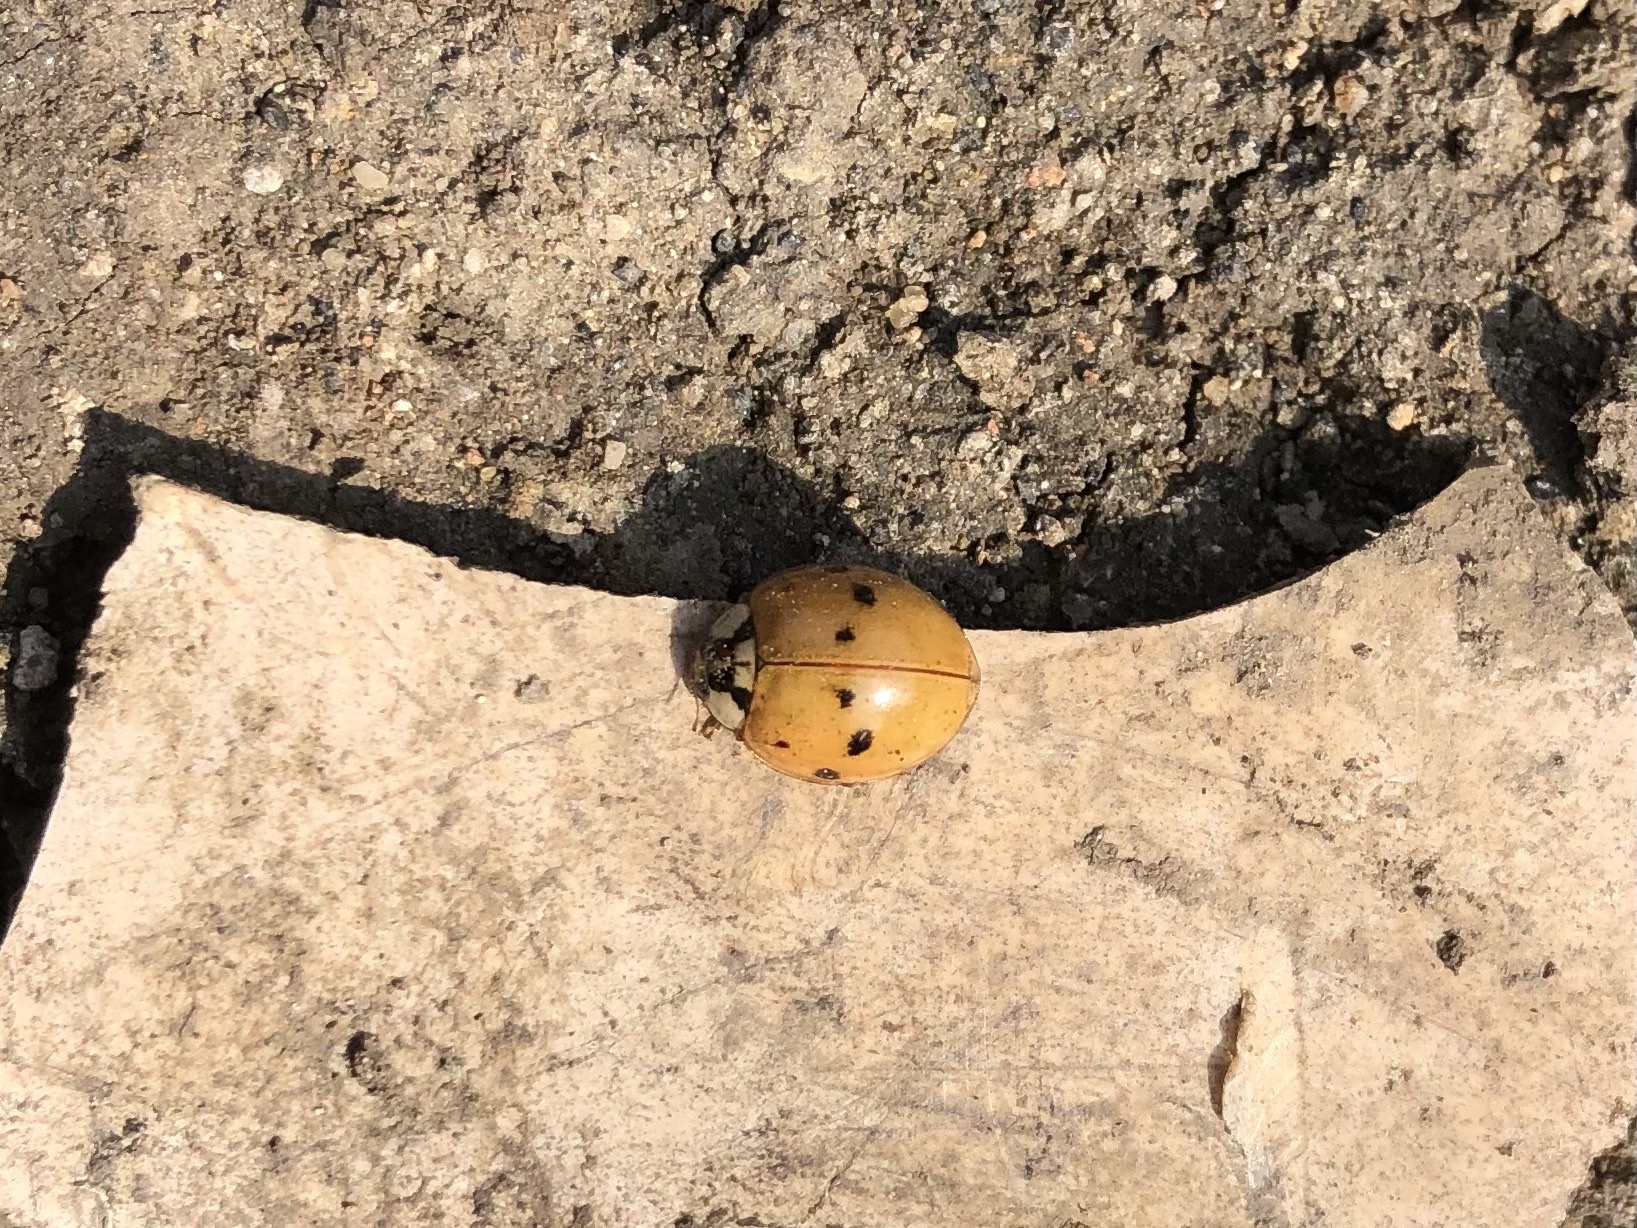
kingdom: Animalia
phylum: Arthropoda
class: Insecta
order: Coleoptera
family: Coccinellidae
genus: Harmonia
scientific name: Harmonia axyridis
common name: Harlequin ladybird
